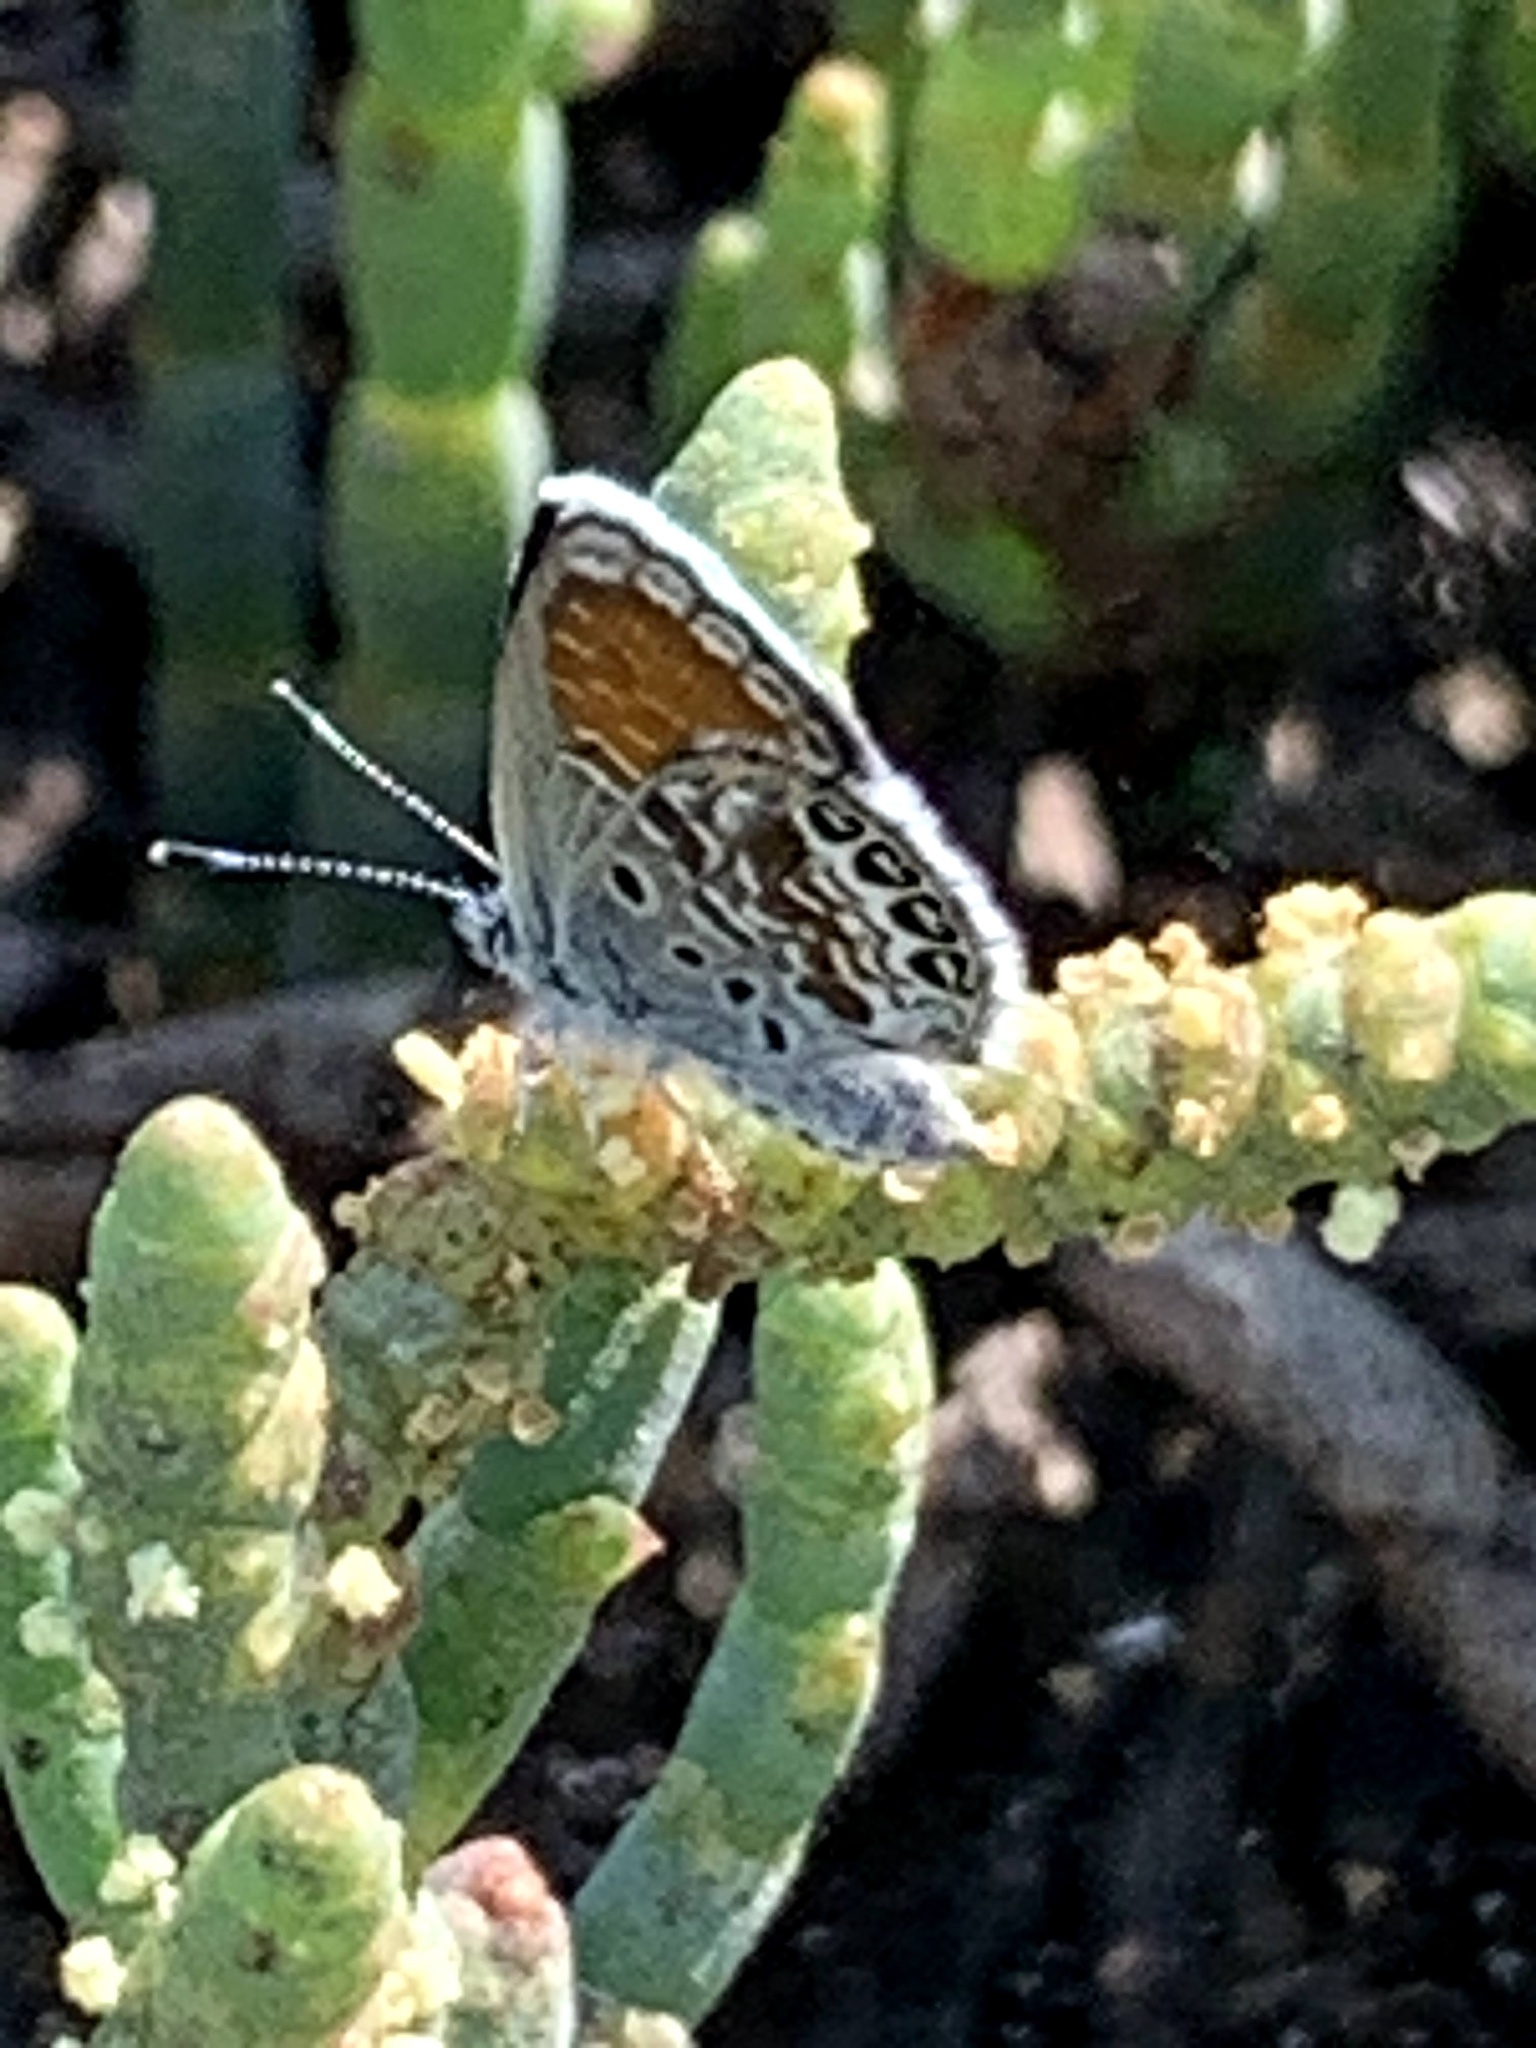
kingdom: Animalia
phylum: Arthropoda
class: Insecta
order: Lepidoptera
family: Lycaenidae
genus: Brephidium
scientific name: Brephidium exilis
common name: Pygmy blue
